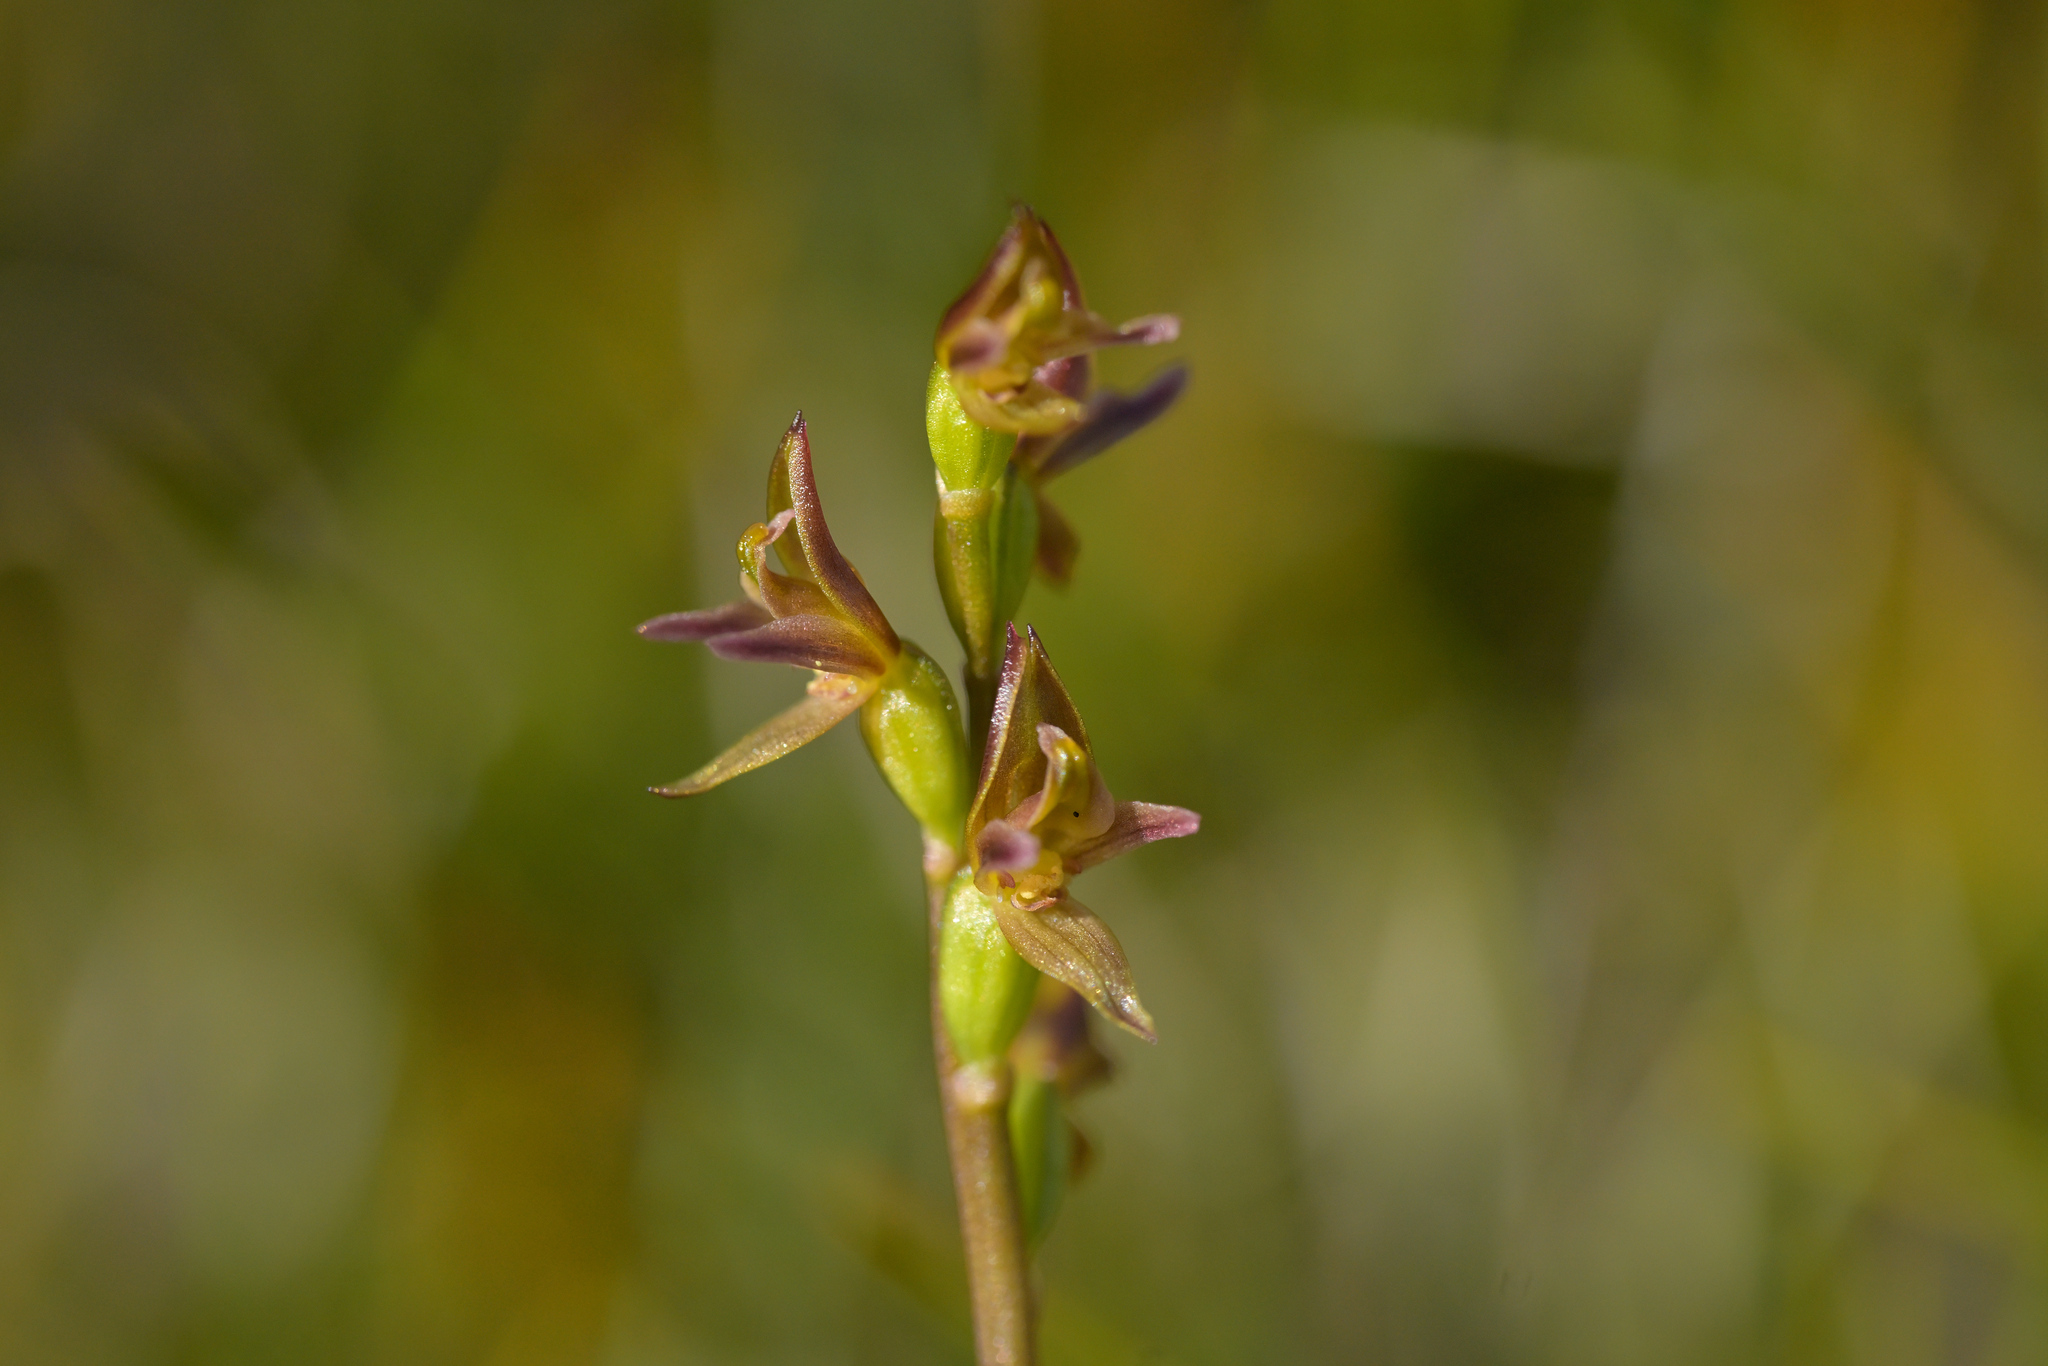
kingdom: Plantae
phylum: Tracheophyta
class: Liliopsida
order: Asparagales
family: Orchidaceae
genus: Prasophyllum
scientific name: Prasophyllum colensoi
